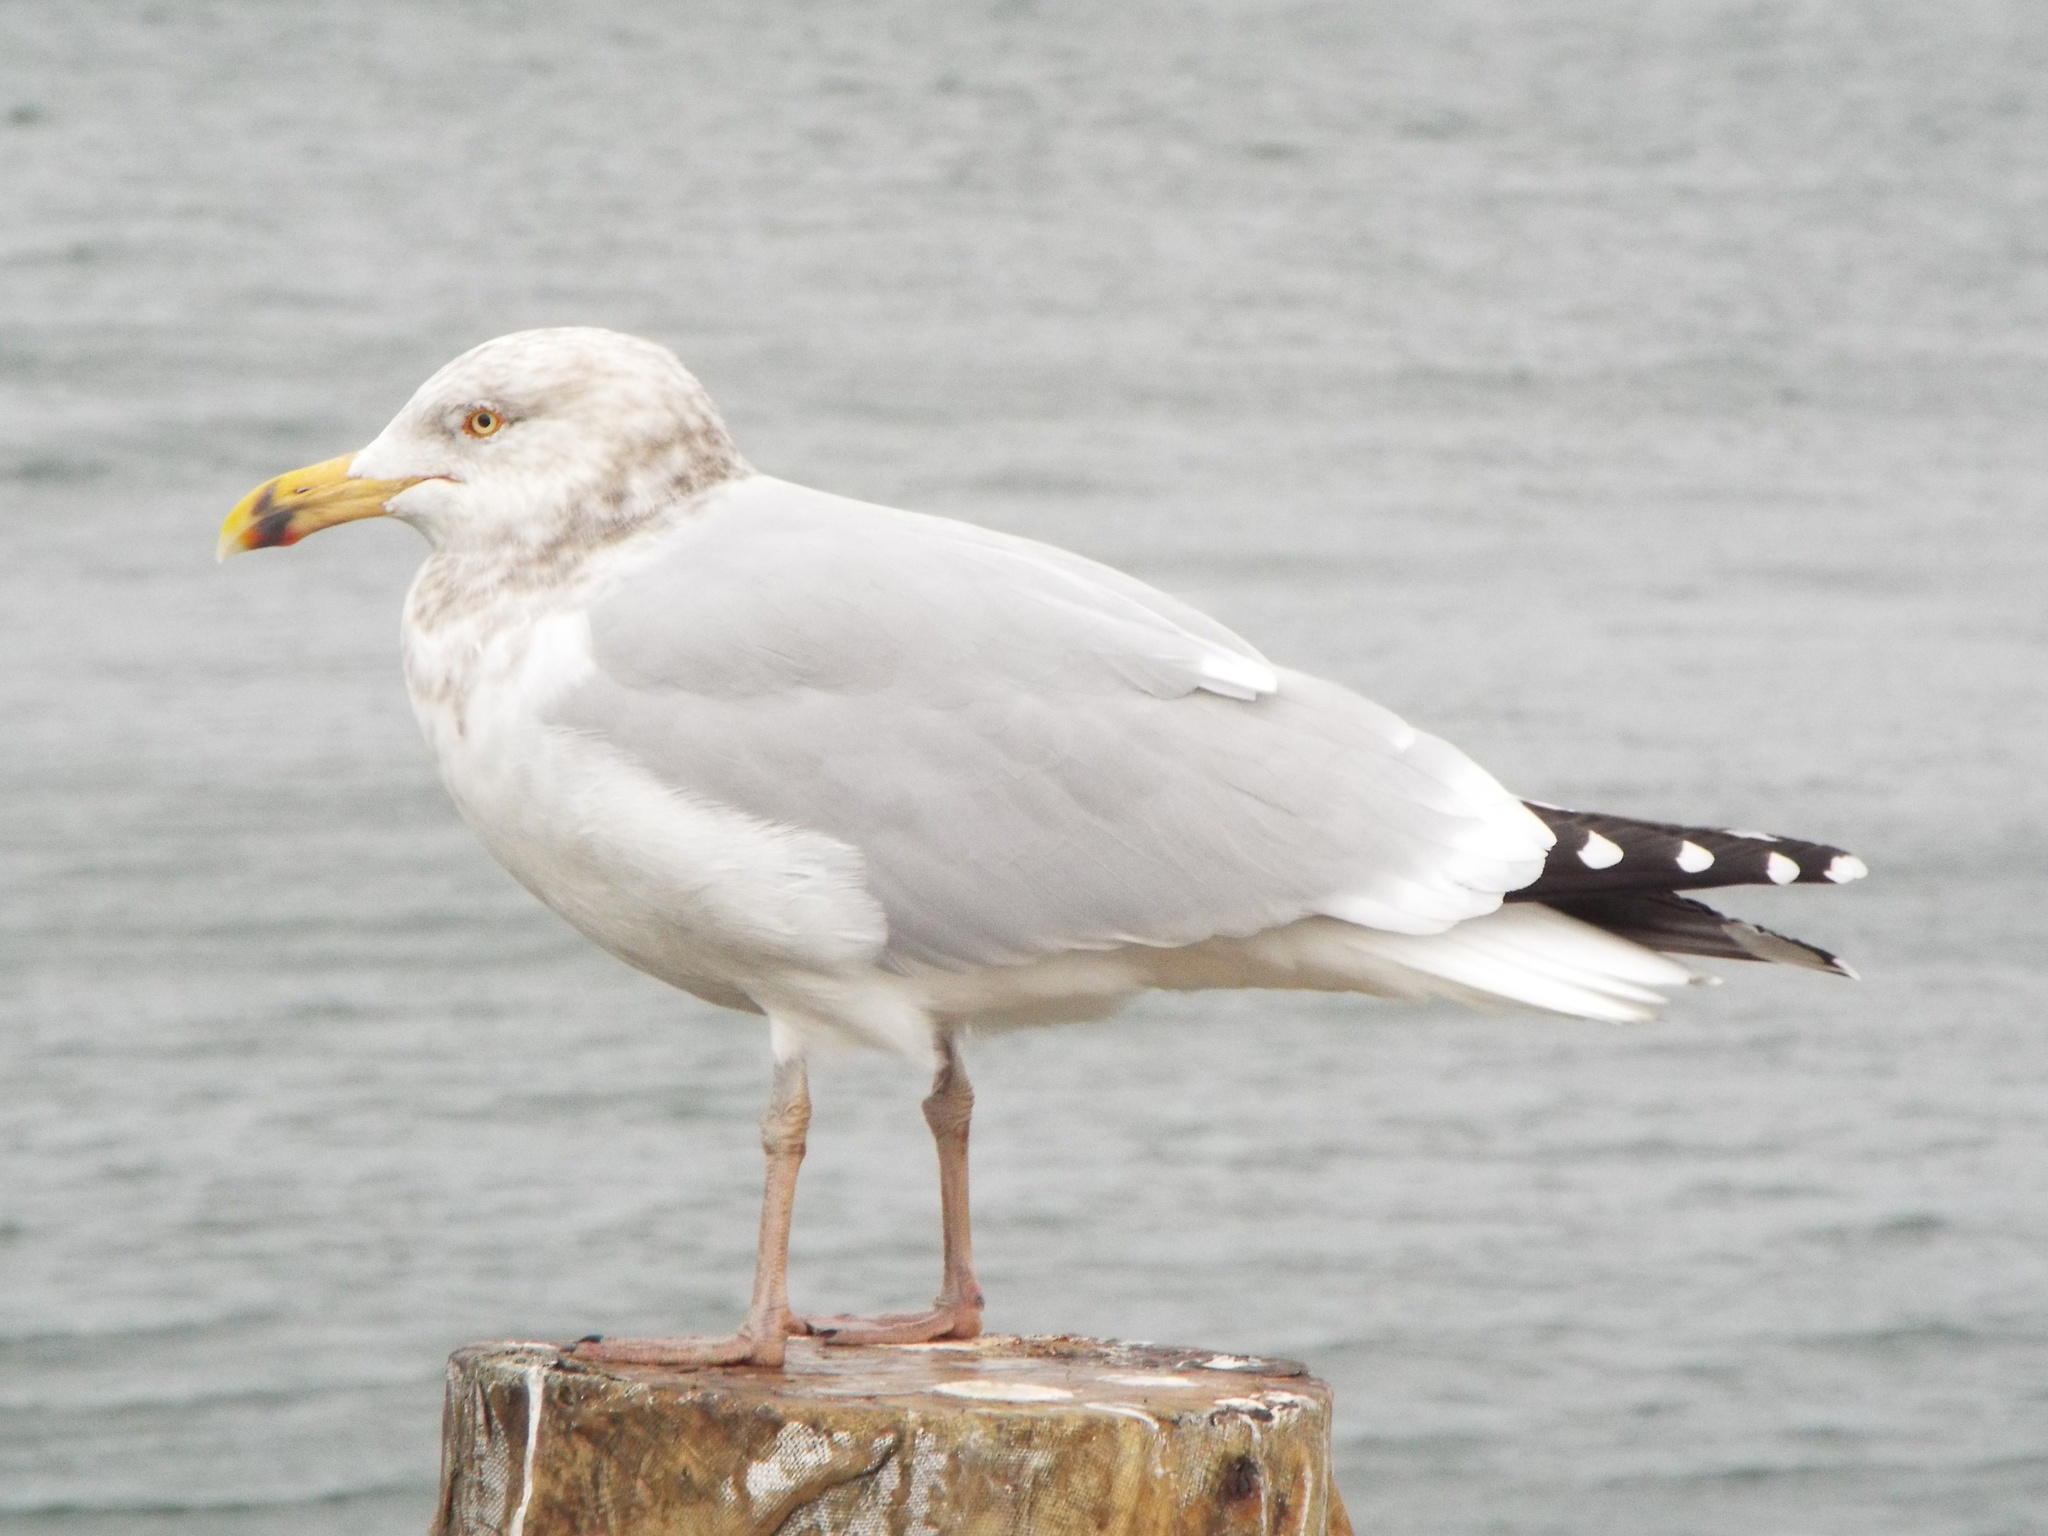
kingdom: Animalia
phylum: Chordata
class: Aves
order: Charadriiformes
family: Laridae
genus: Larus
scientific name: Larus argentatus
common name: Herring gull
